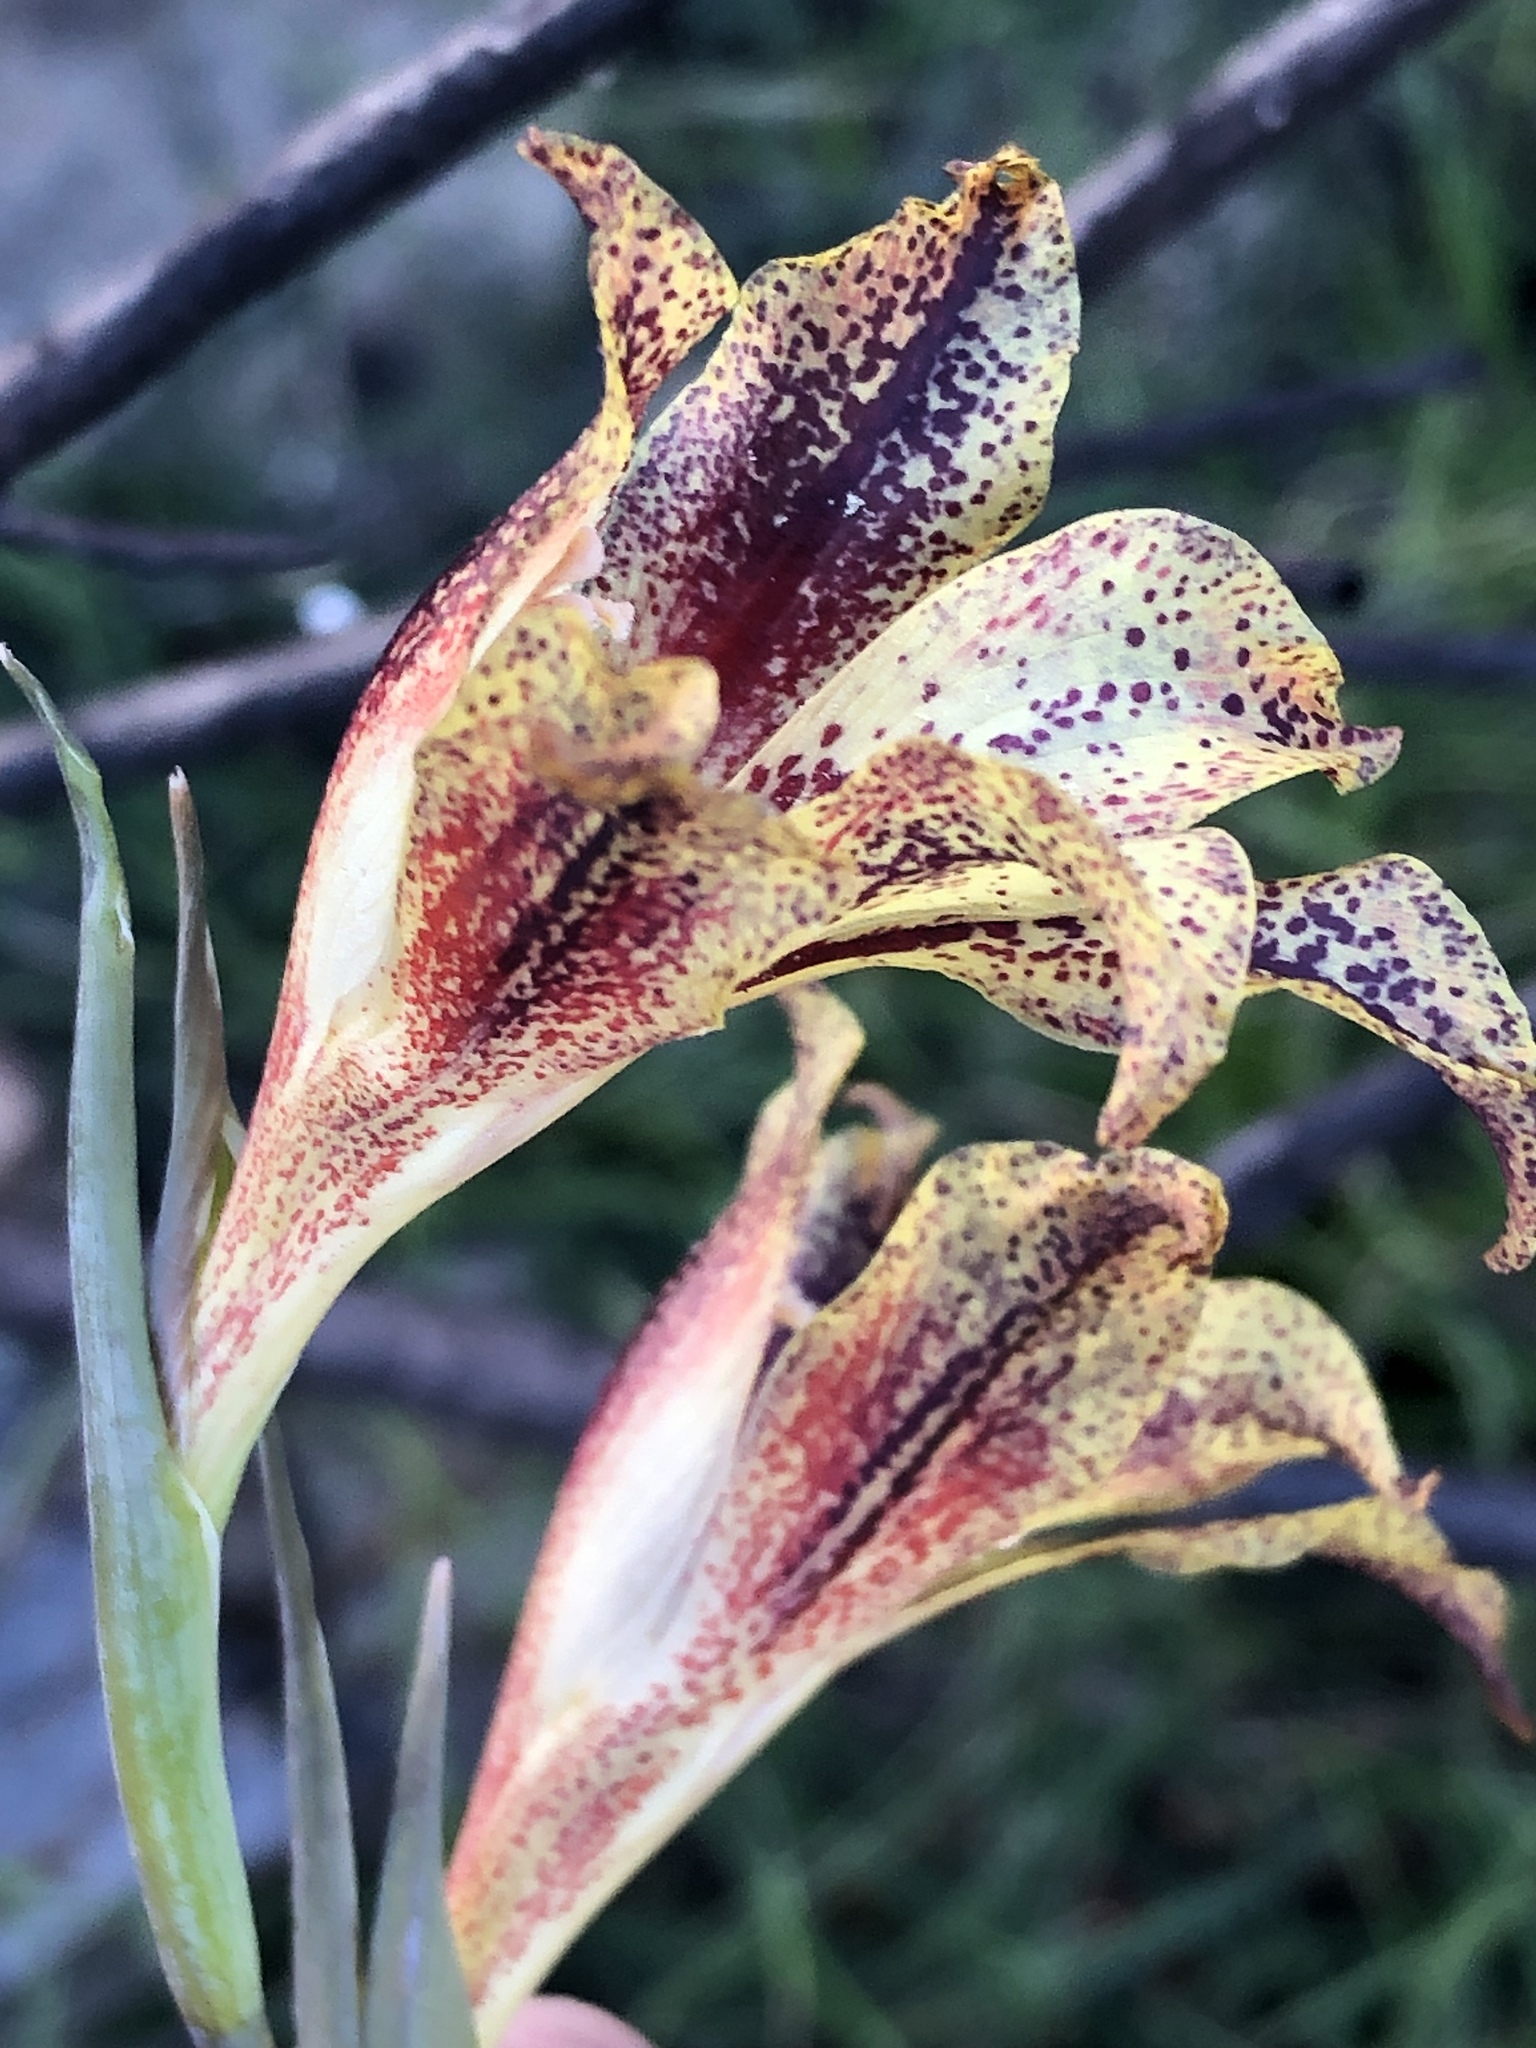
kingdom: Plantae
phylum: Tracheophyta
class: Liliopsida
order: Asparagales
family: Iridaceae
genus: Gladiolus
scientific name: Gladiolus maculatus
